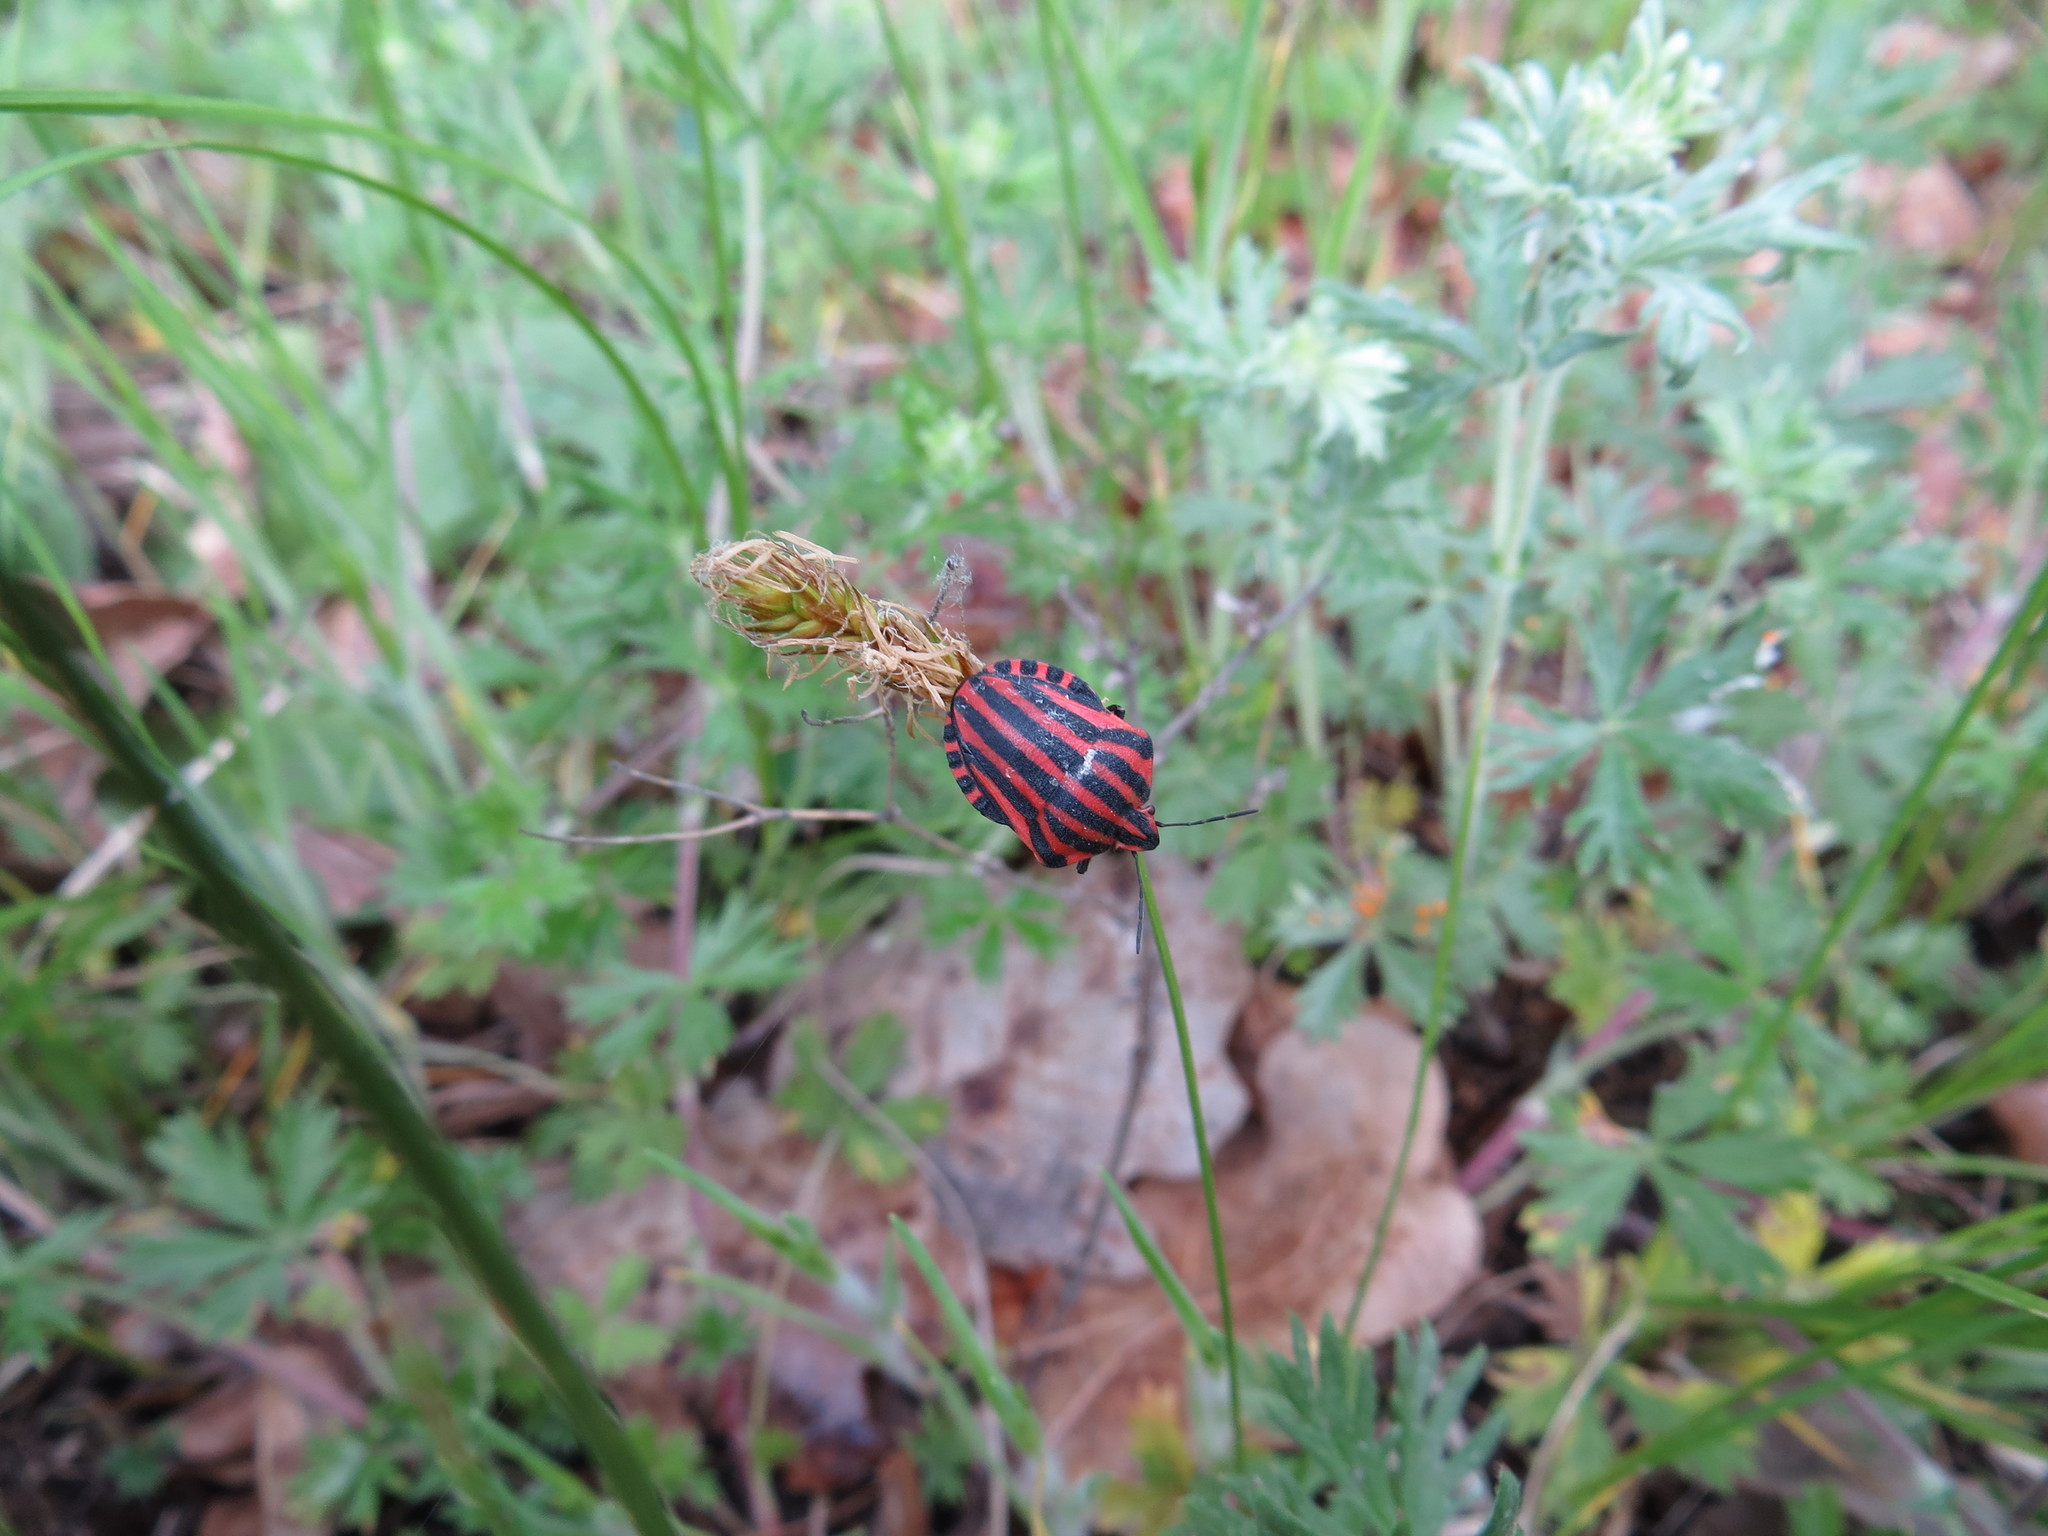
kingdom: Animalia
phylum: Arthropoda
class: Insecta
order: Hemiptera
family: Pentatomidae
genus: Graphosoma
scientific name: Graphosoma italicum
